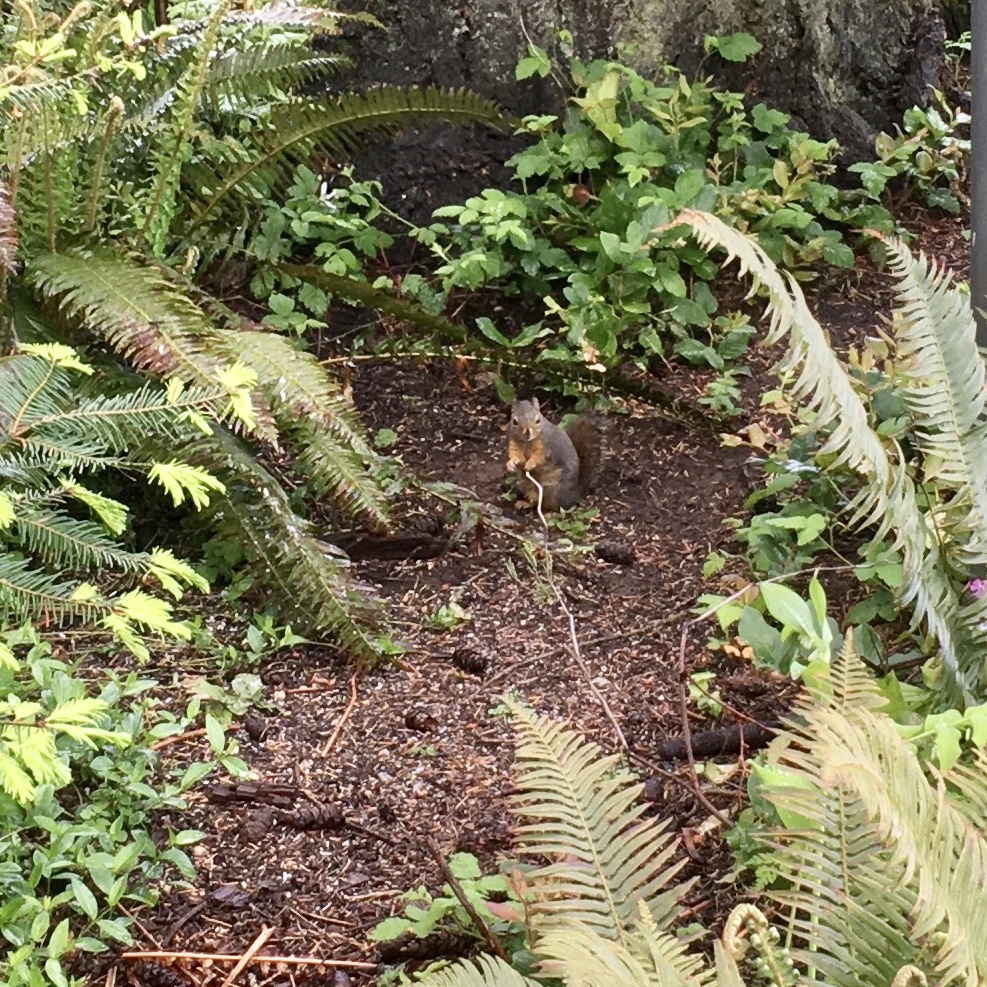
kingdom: Animalia
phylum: Chordata
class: Mammalia
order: Rodentia
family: Sciuridae
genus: Tamiasciurus
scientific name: Tamiasciurus douglasii
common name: Douglas's squirrel
